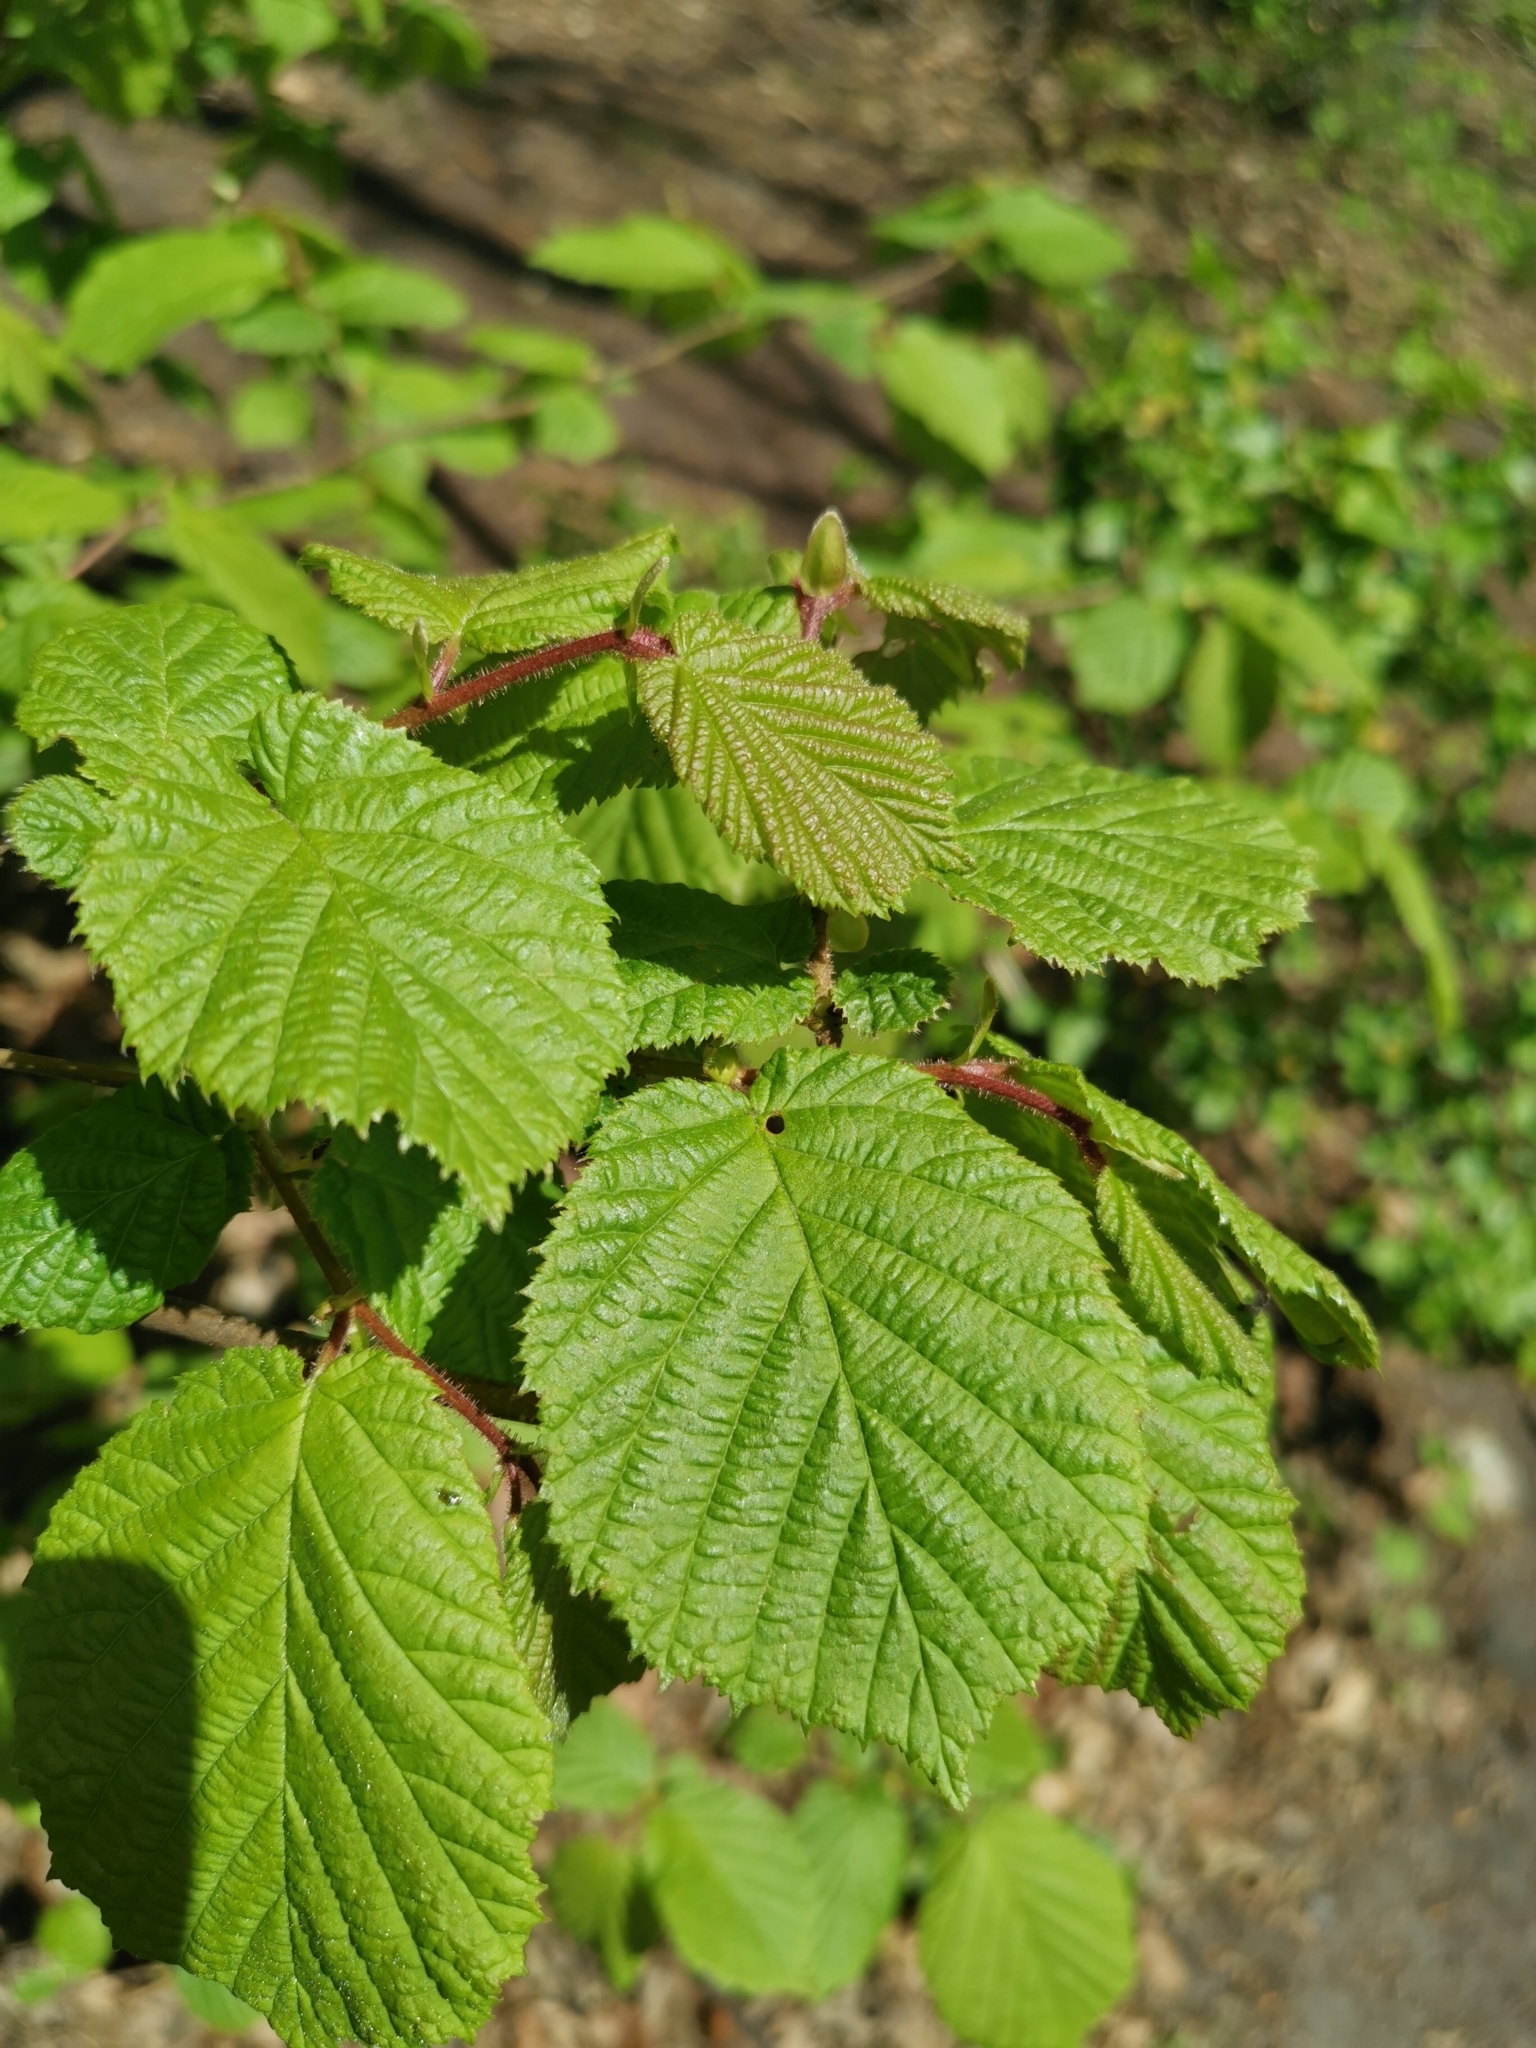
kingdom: Plantae
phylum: Tracheophyta
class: Magnoliopsida
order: Fagales
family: Betulaceae
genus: Corylus
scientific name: Corylus avellana
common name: European hazel
